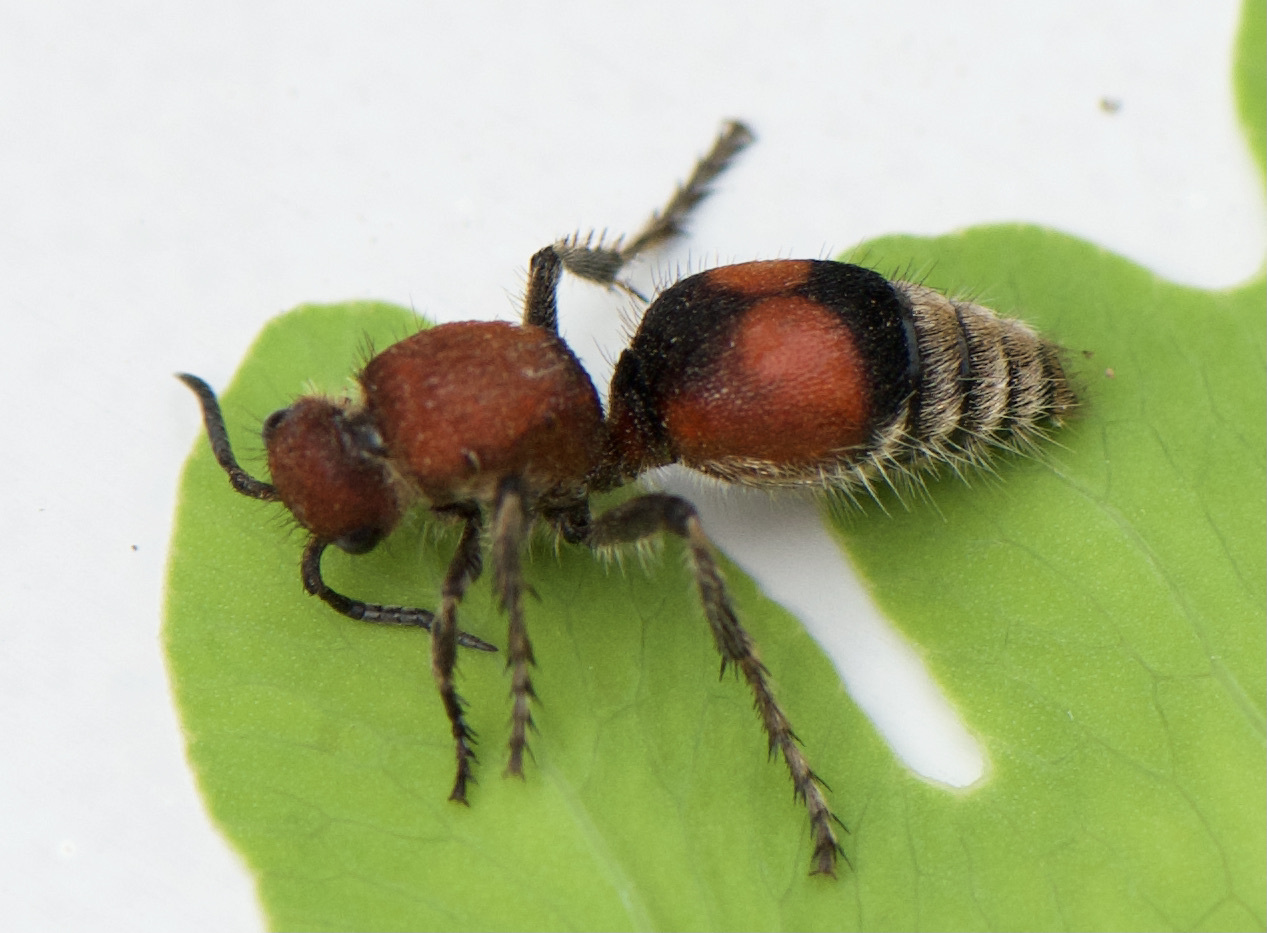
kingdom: Animalia
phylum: Arthropoda
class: Insecta
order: Hymenoptera
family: Mutillidae
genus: Dasymutilla
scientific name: Dasymutilla
